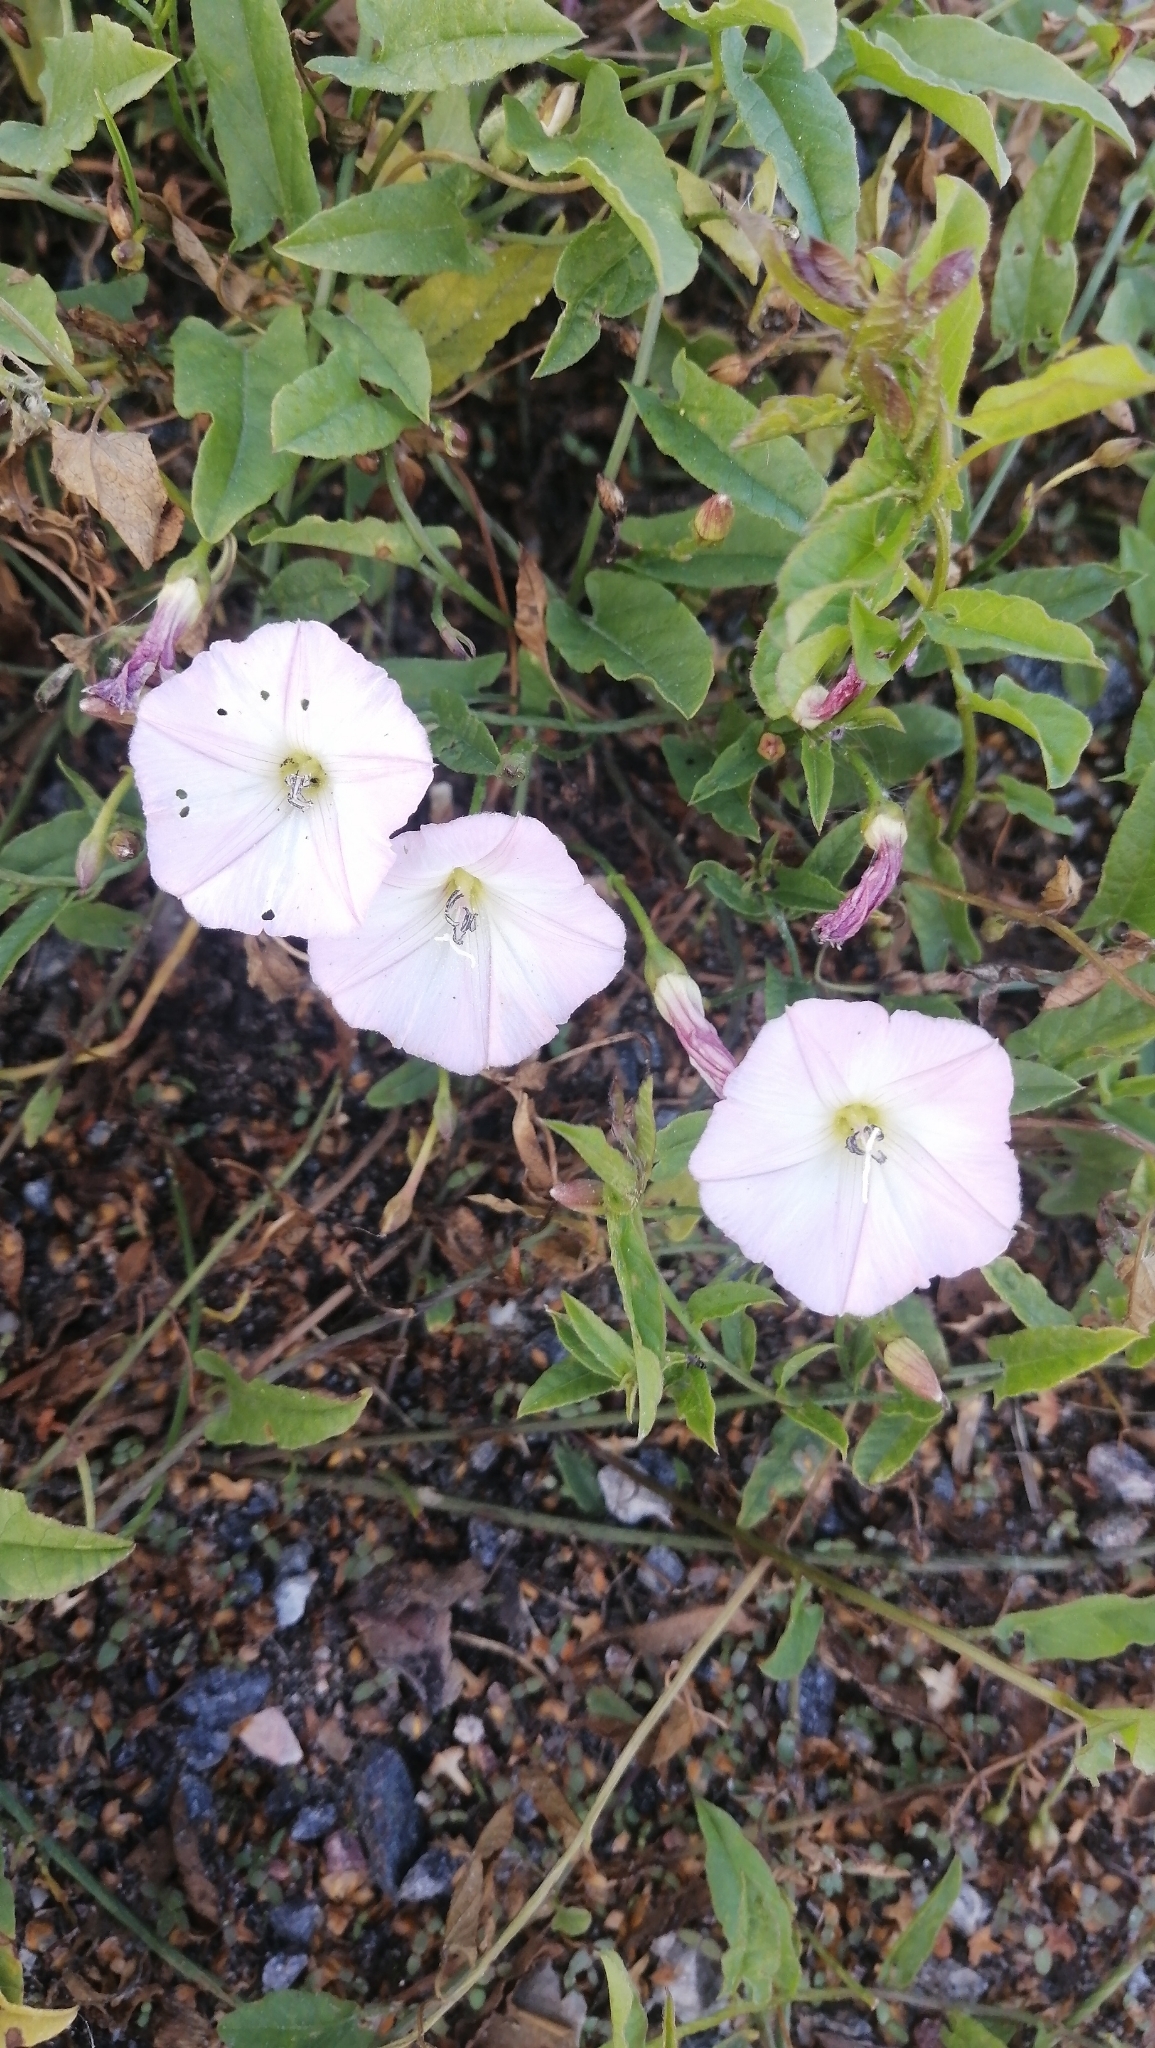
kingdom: Plantae
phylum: Tracheophyta
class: Magnoliopsida
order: Solanales
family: Convolvulaceae
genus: Convolvulus
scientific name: Convolvulus arvensis
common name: Field bindweed
